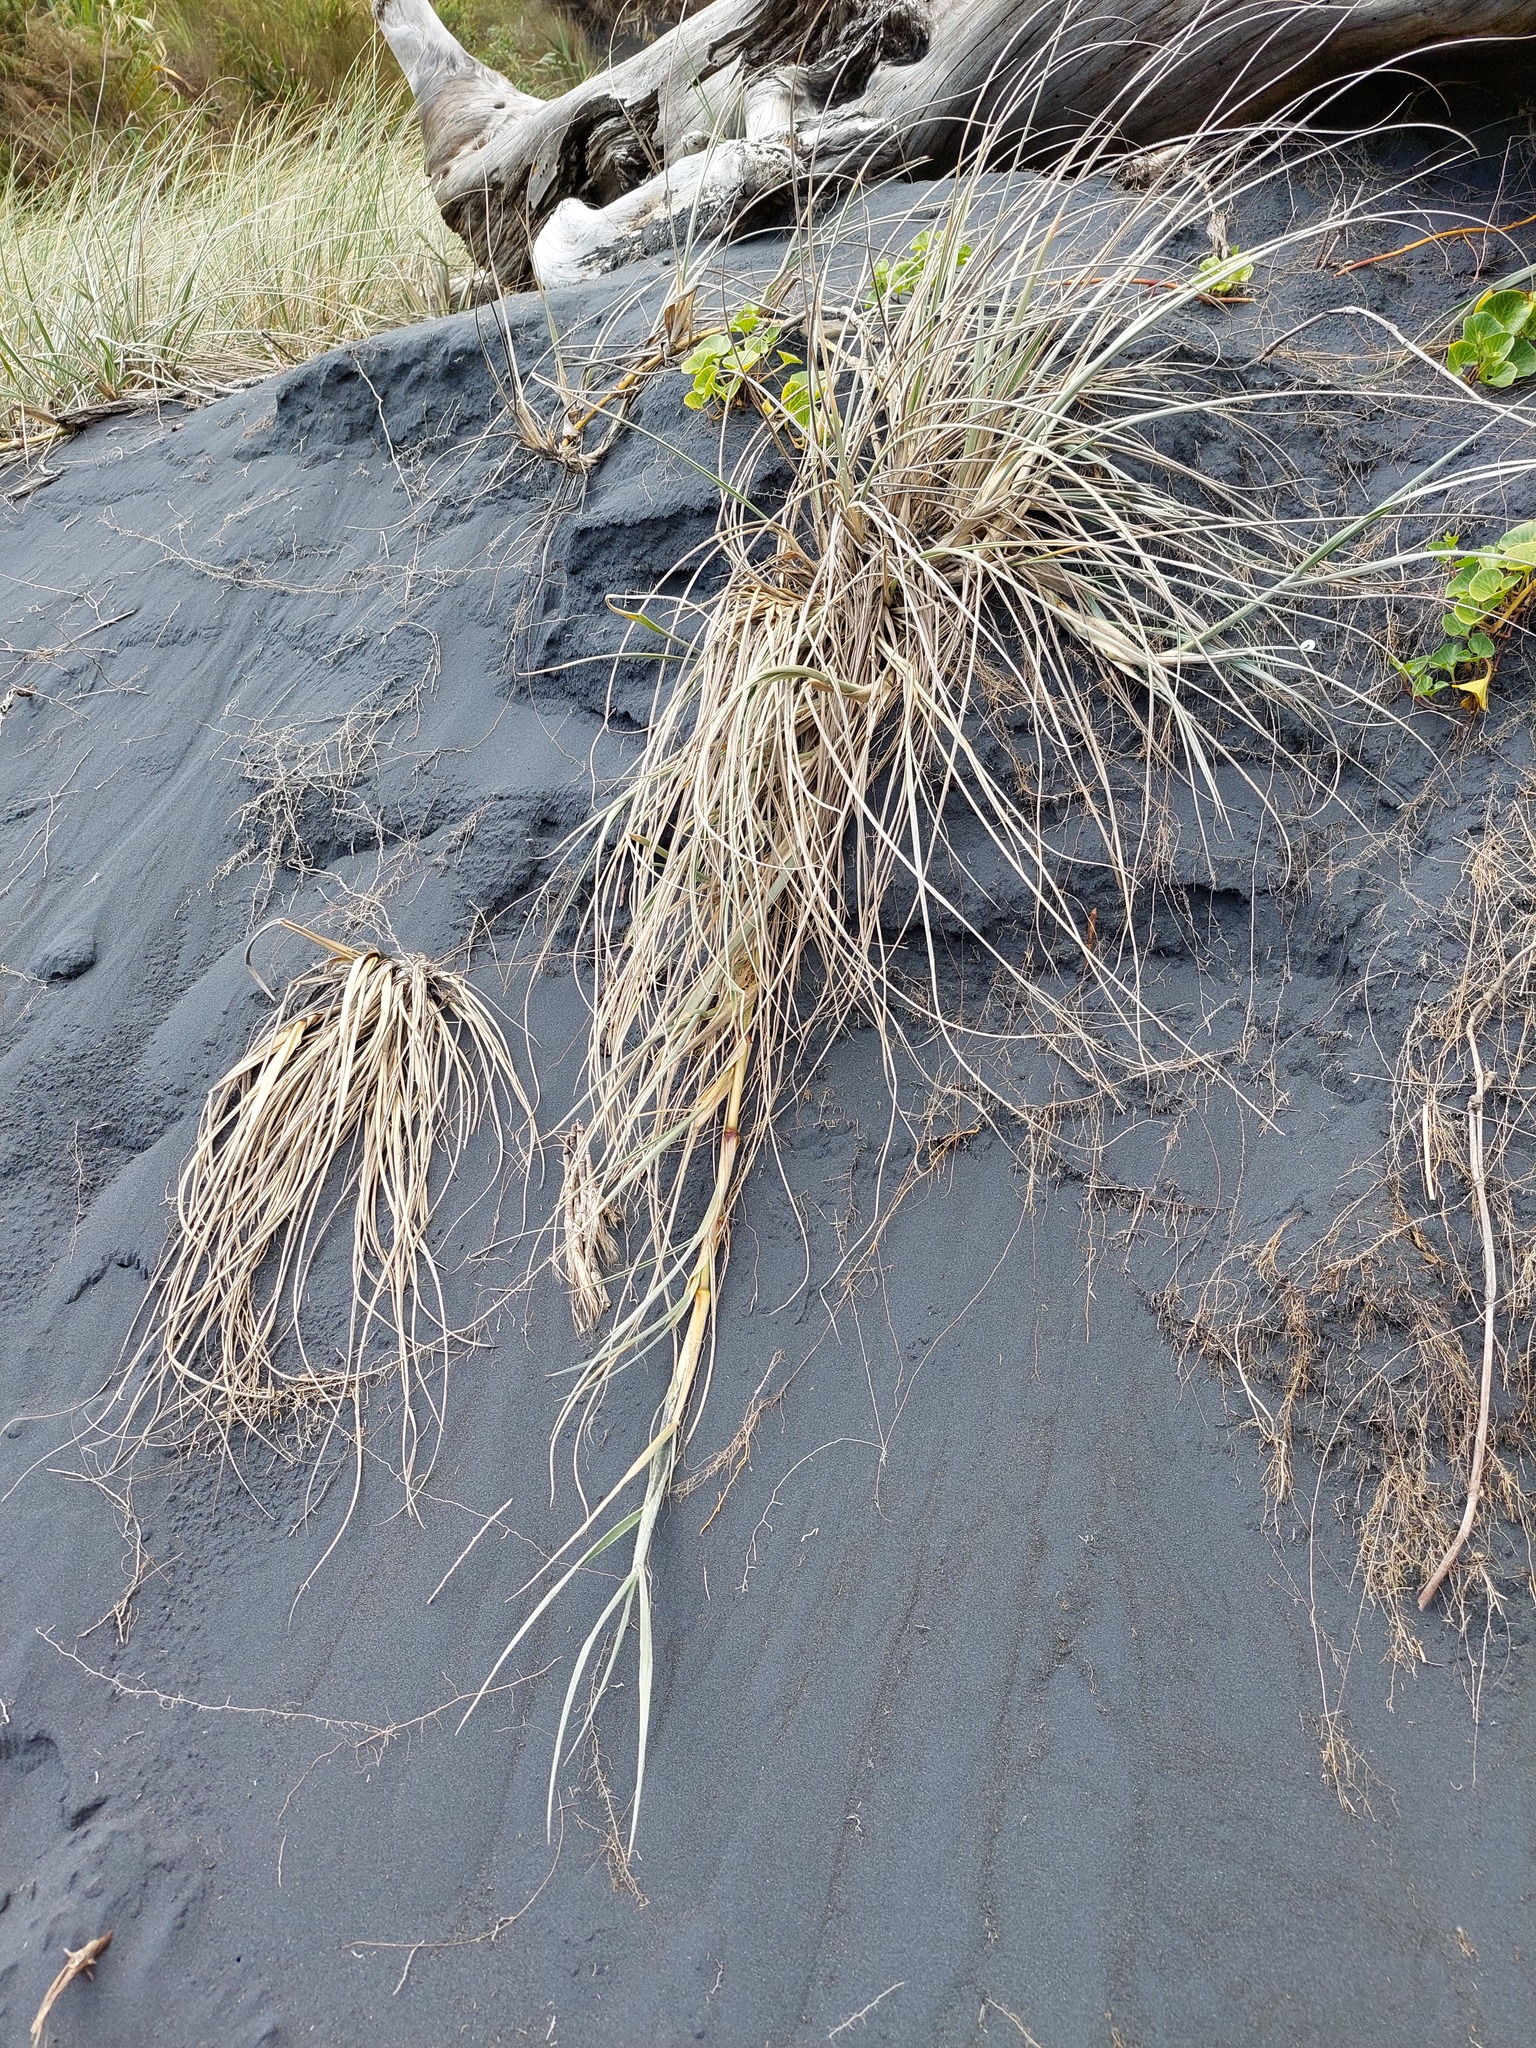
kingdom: Plantae
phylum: Tracheophyta
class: Liliopsida
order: Poales
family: Poaceae
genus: Calamagrostis
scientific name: Calamagrostis arenaria
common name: European beachgrass
